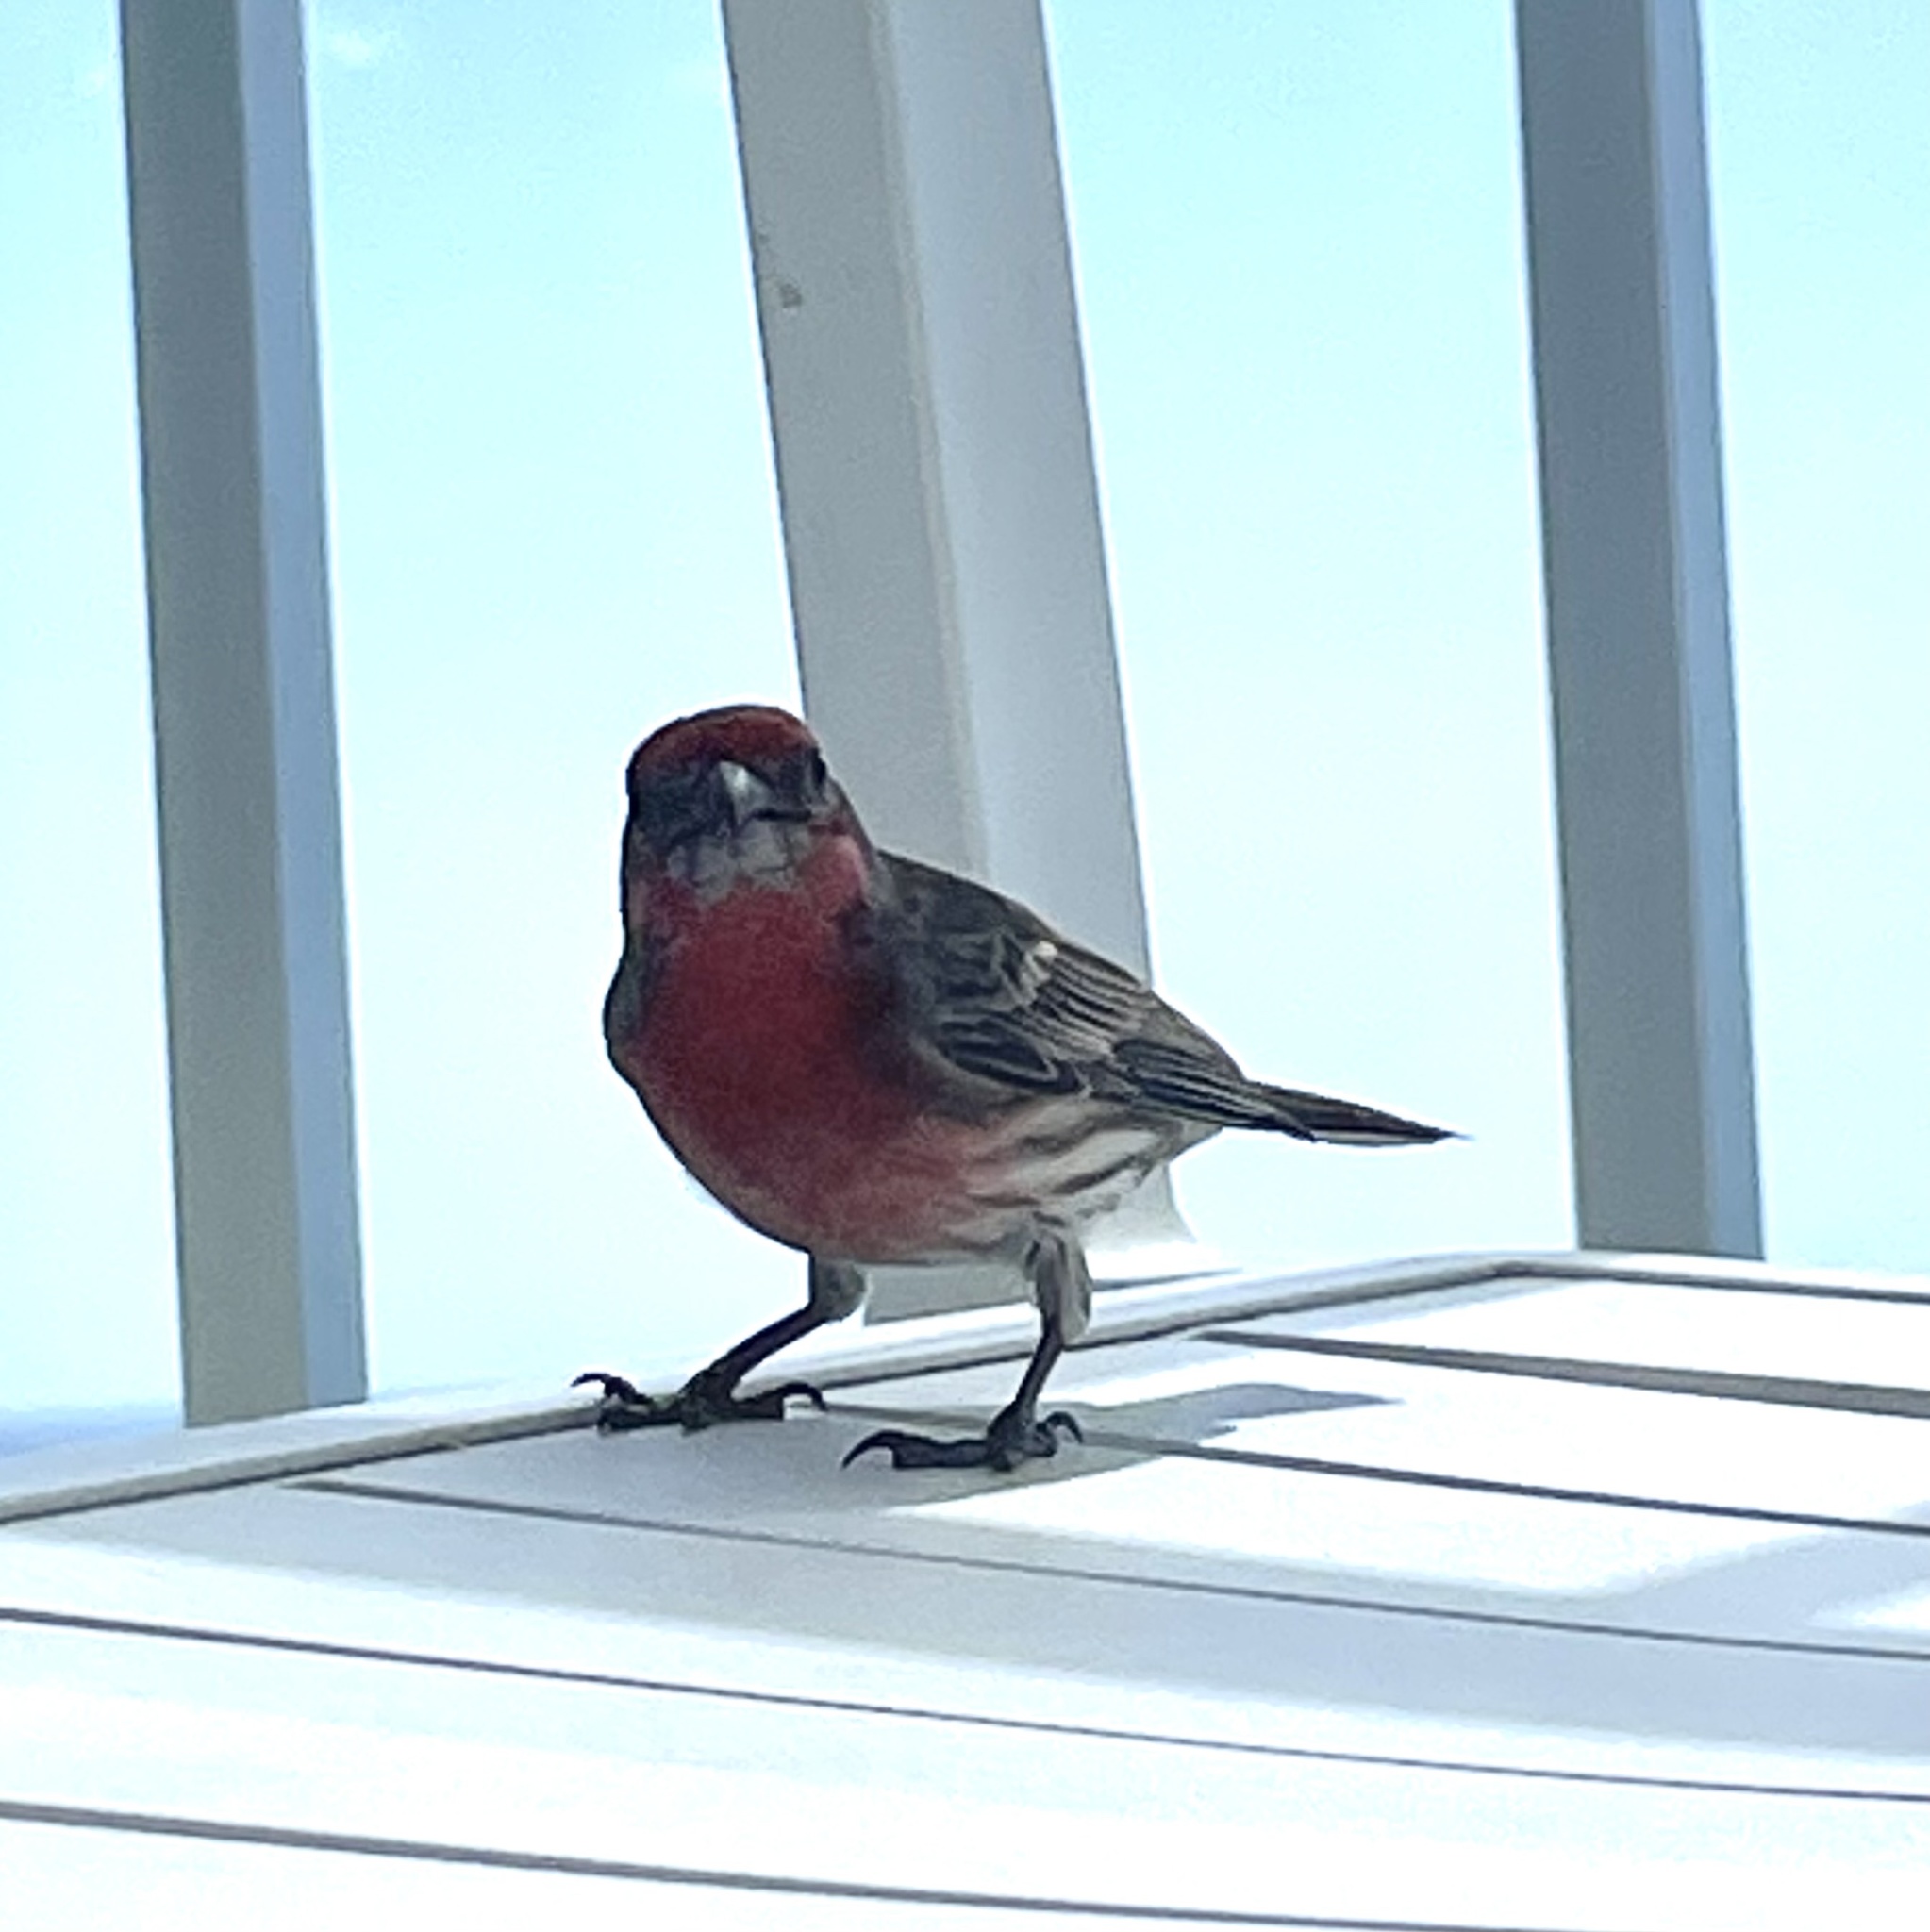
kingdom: Animalia
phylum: Chordata
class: Aves
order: Passeriformes
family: Fringillidae
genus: Haemorhous
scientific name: Haemorhous mexicanus
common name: House finch
